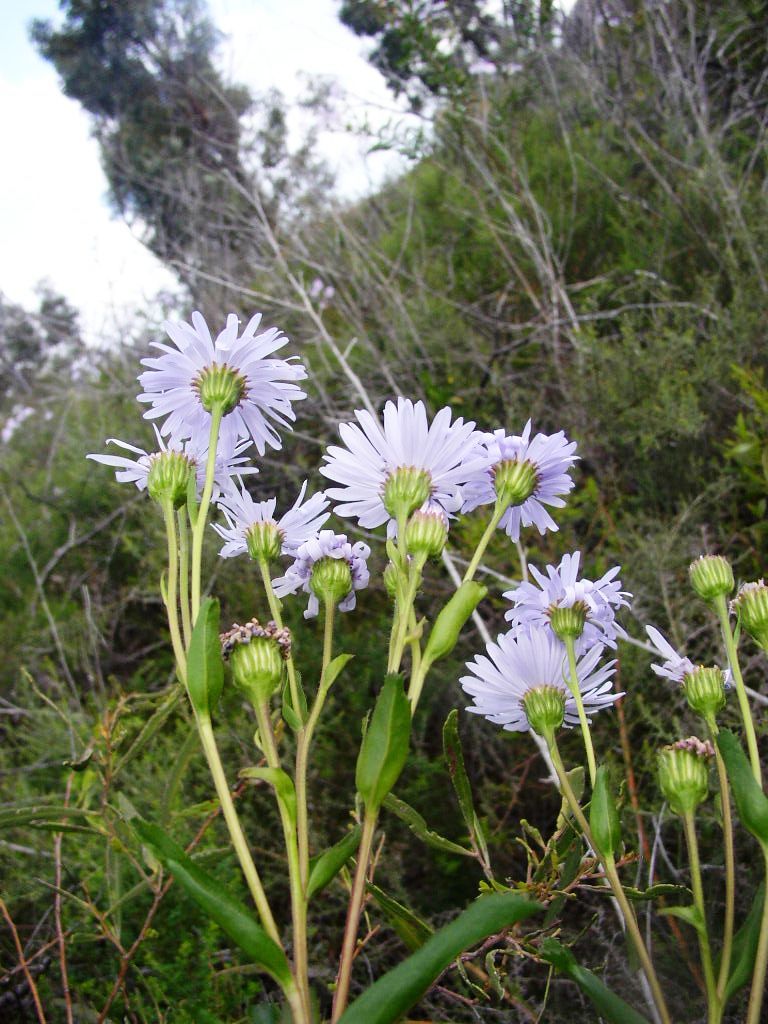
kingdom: Plantae
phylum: Tracheophyta
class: Magnoliopsida
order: Asterales
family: Asteraceae
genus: Muellerolaria
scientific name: Muellerolaria rudis
